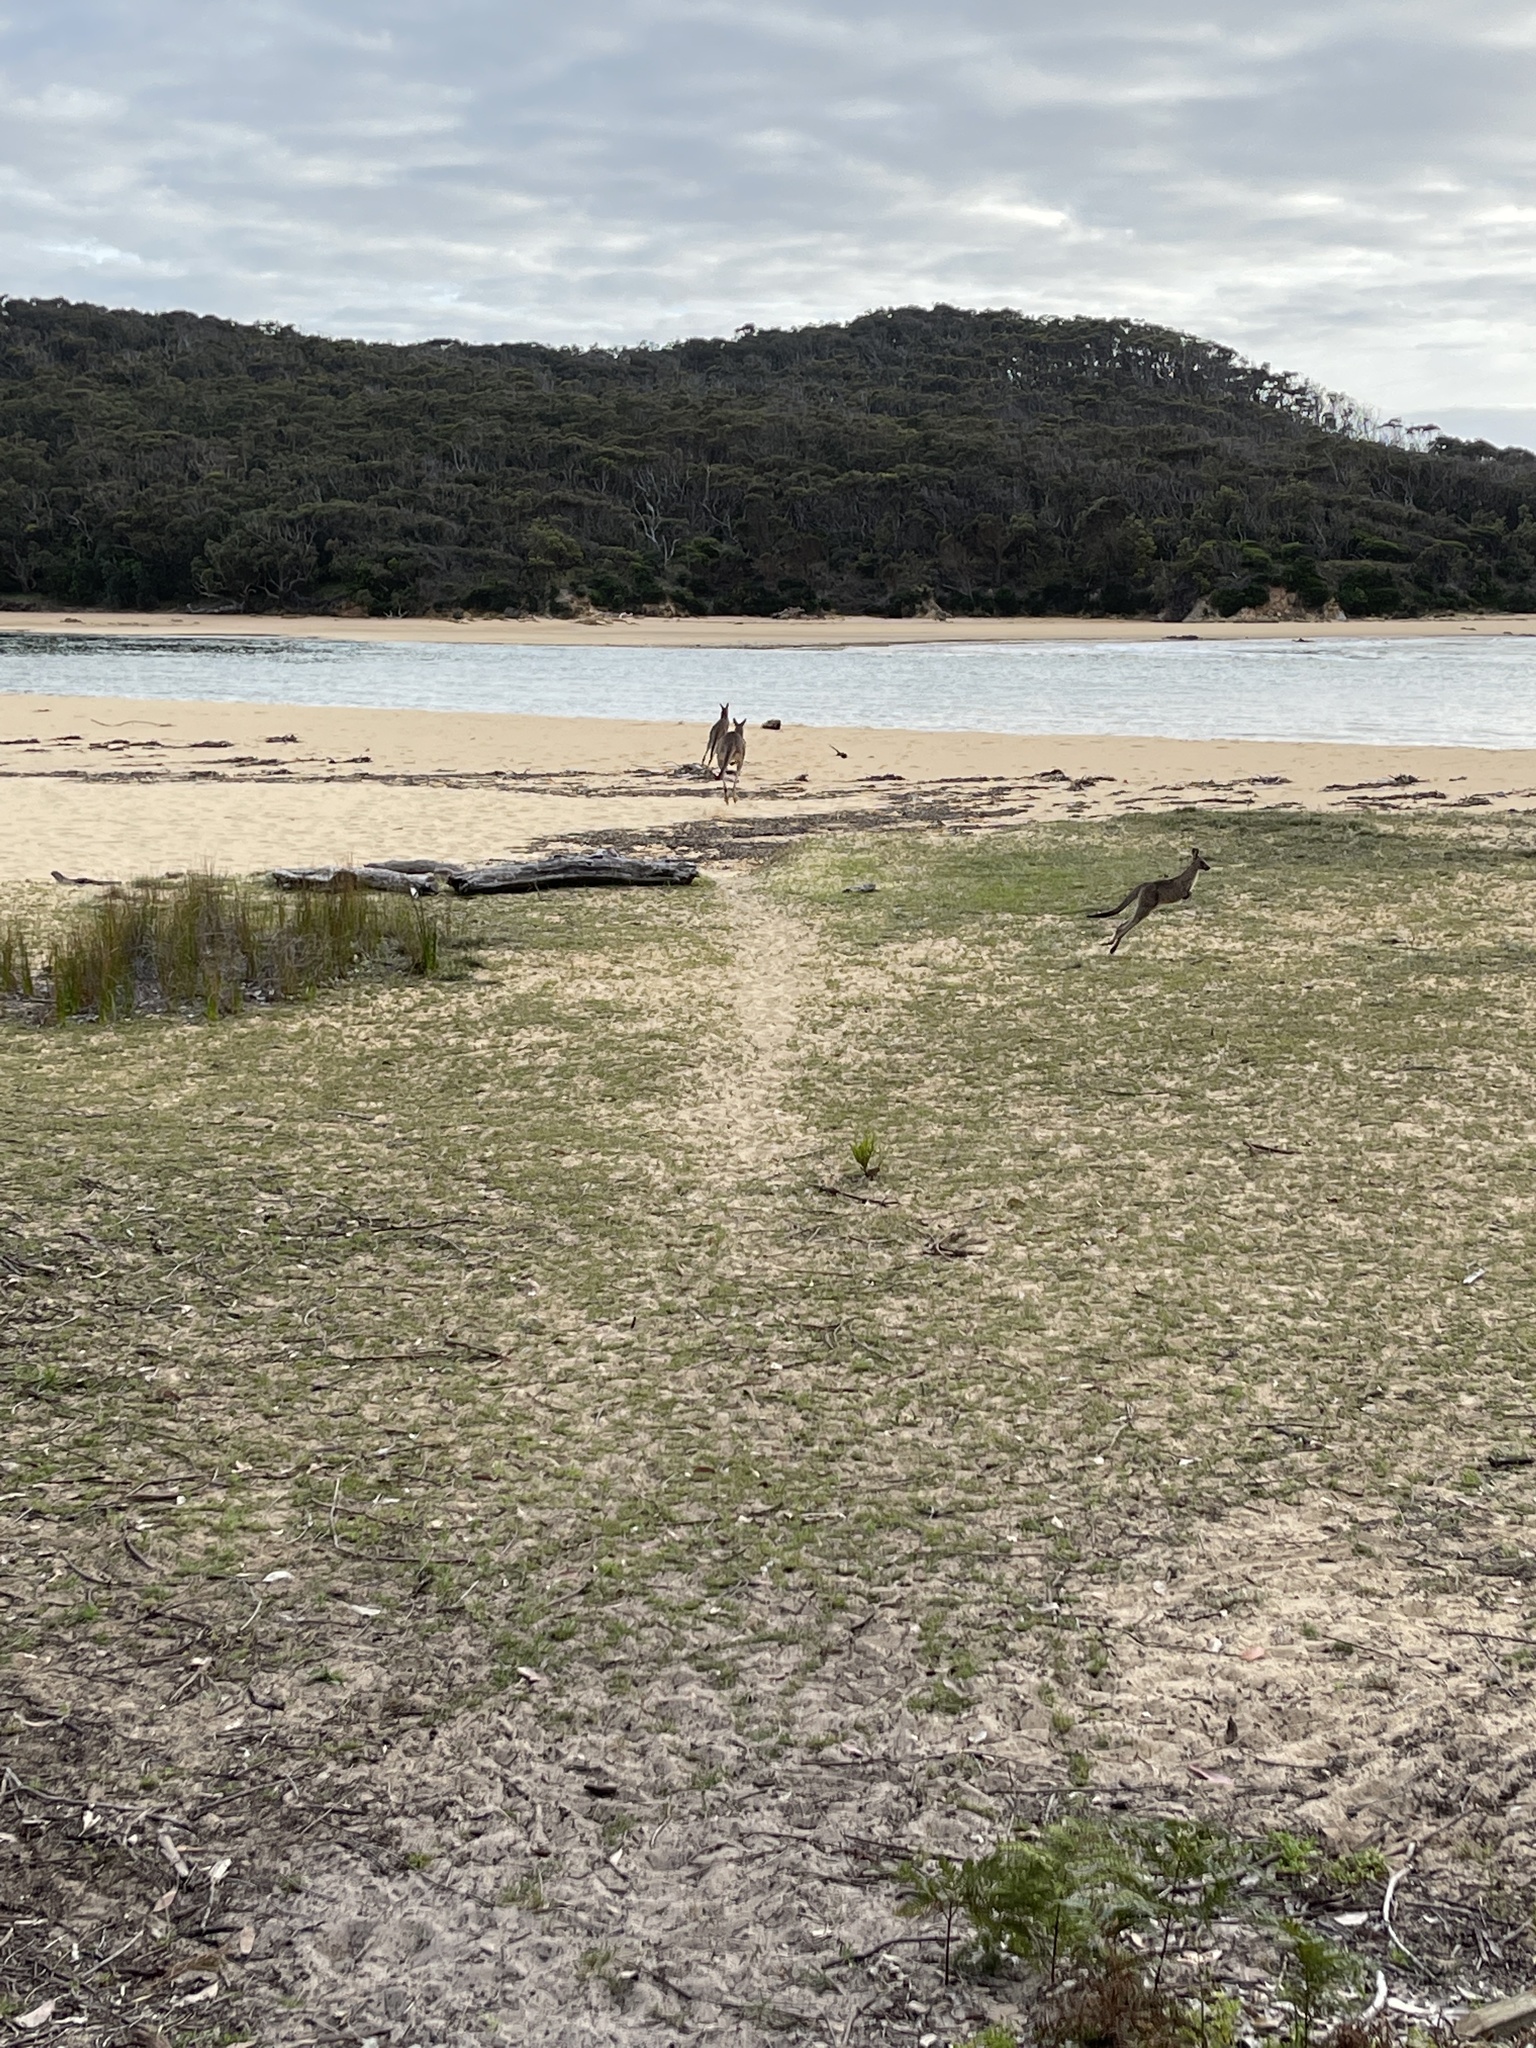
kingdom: Animalia
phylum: Chordata
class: Mammalia
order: Diprotodontia
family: Macropodidae
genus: Macropus
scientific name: Macropus giganteus
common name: Eastern grey kangaroo
